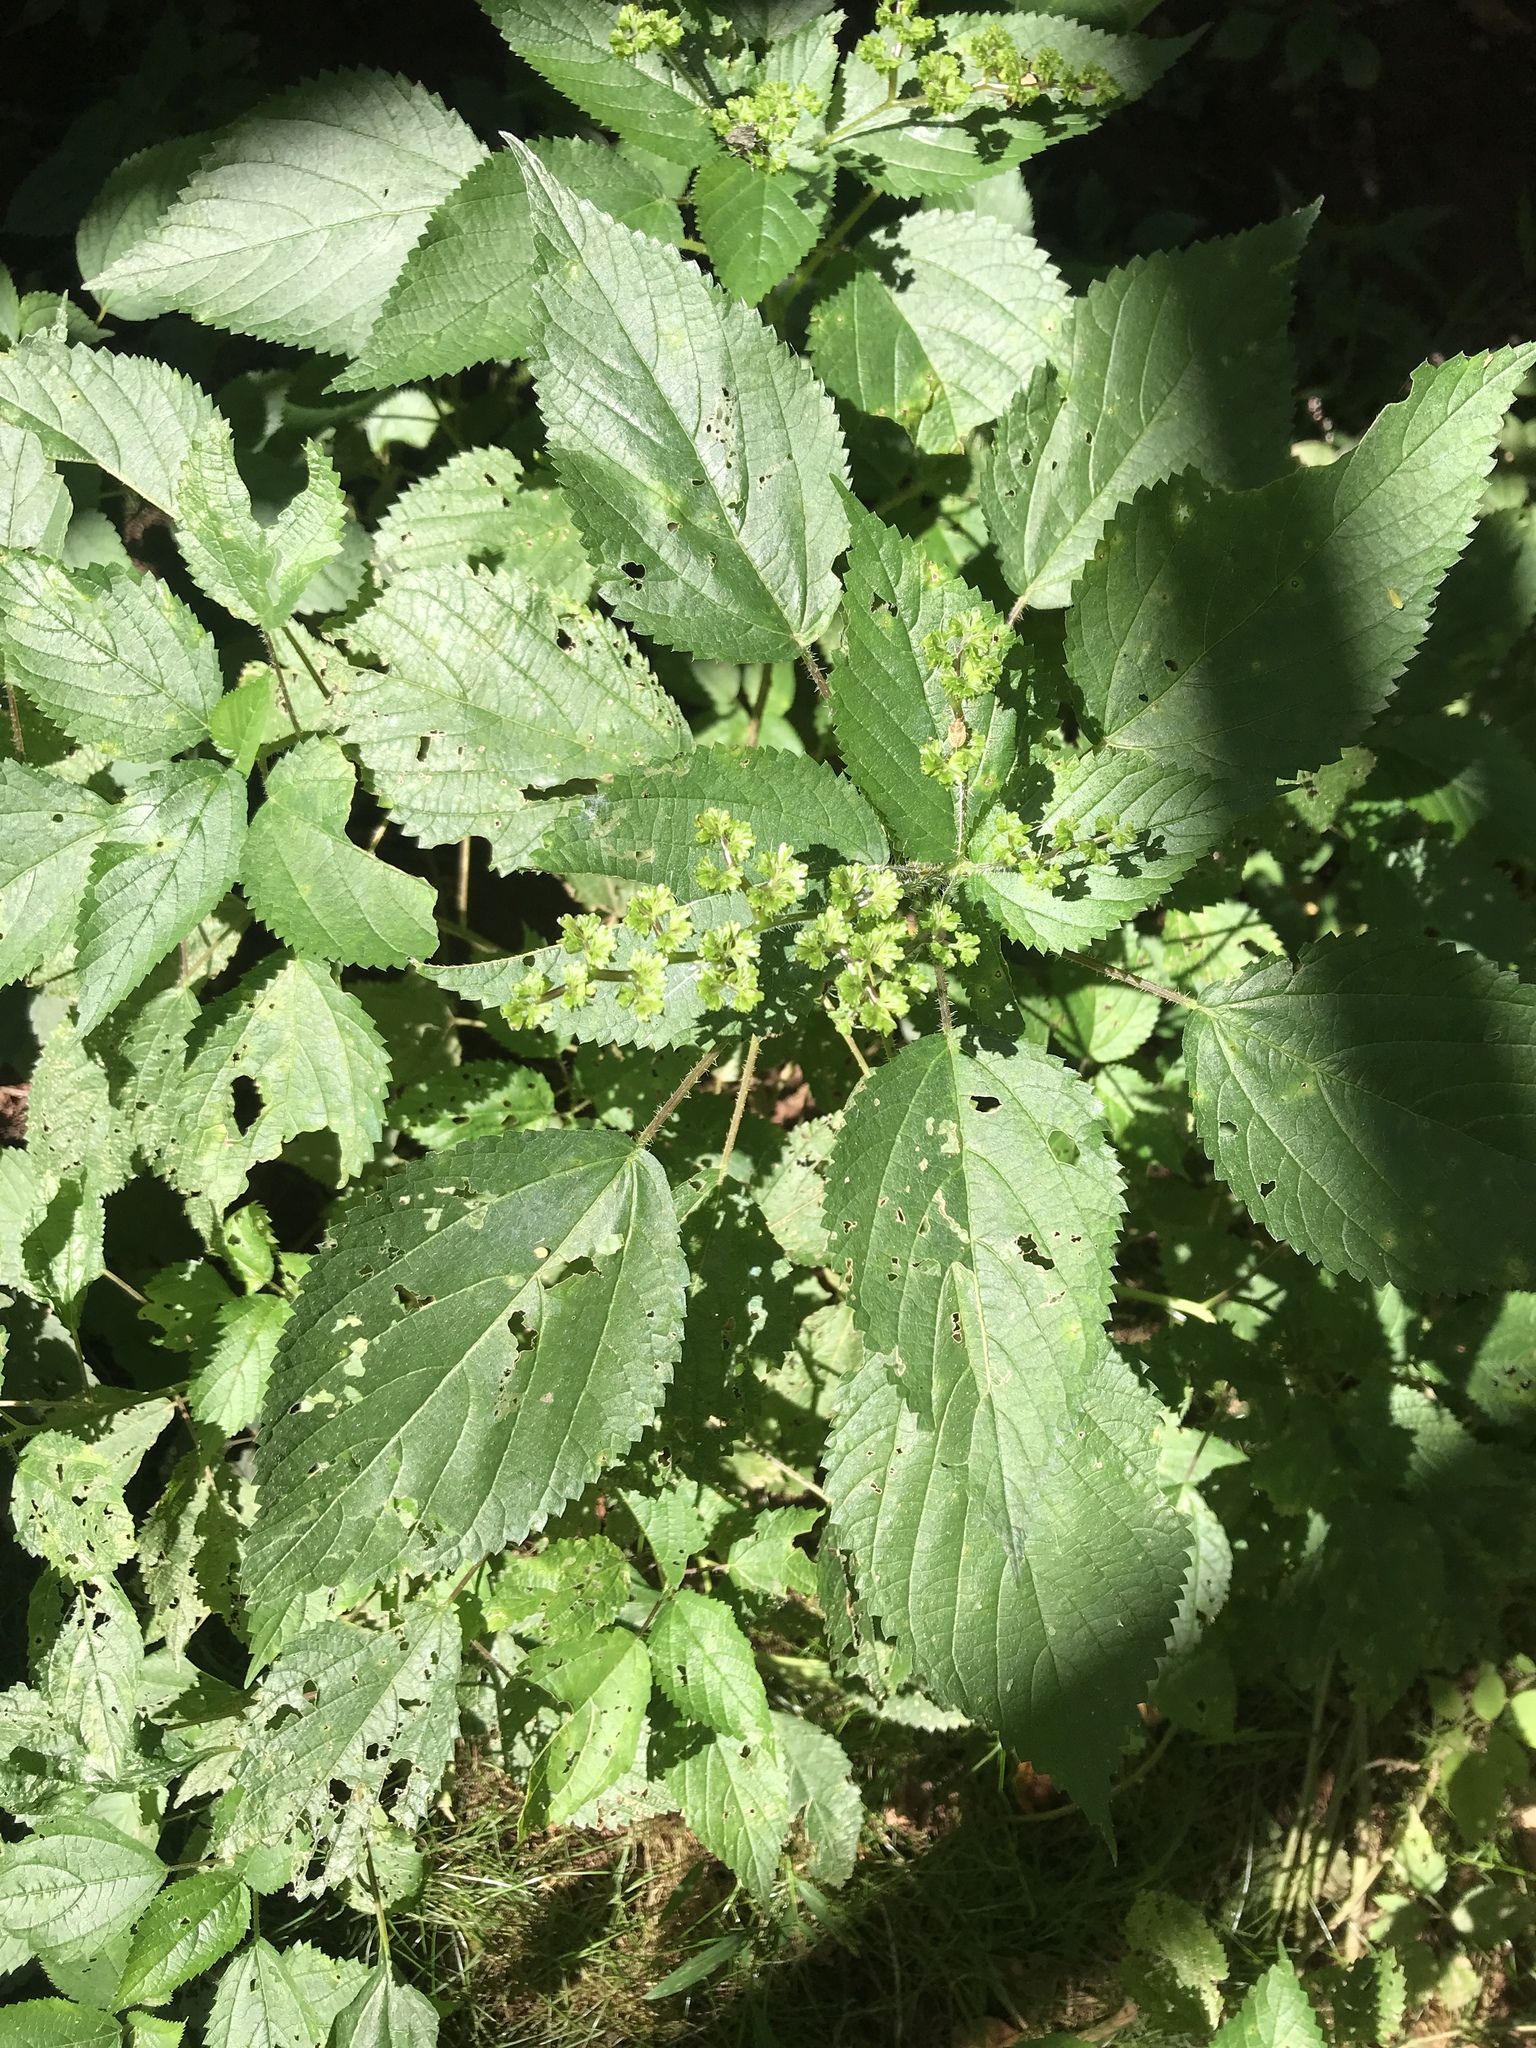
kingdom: Plantae
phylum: Tracheophyta
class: Magnoliopsida
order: Rosales
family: Urticaceae
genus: Laportea
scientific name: Laportea canadensis
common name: Canada nettle
